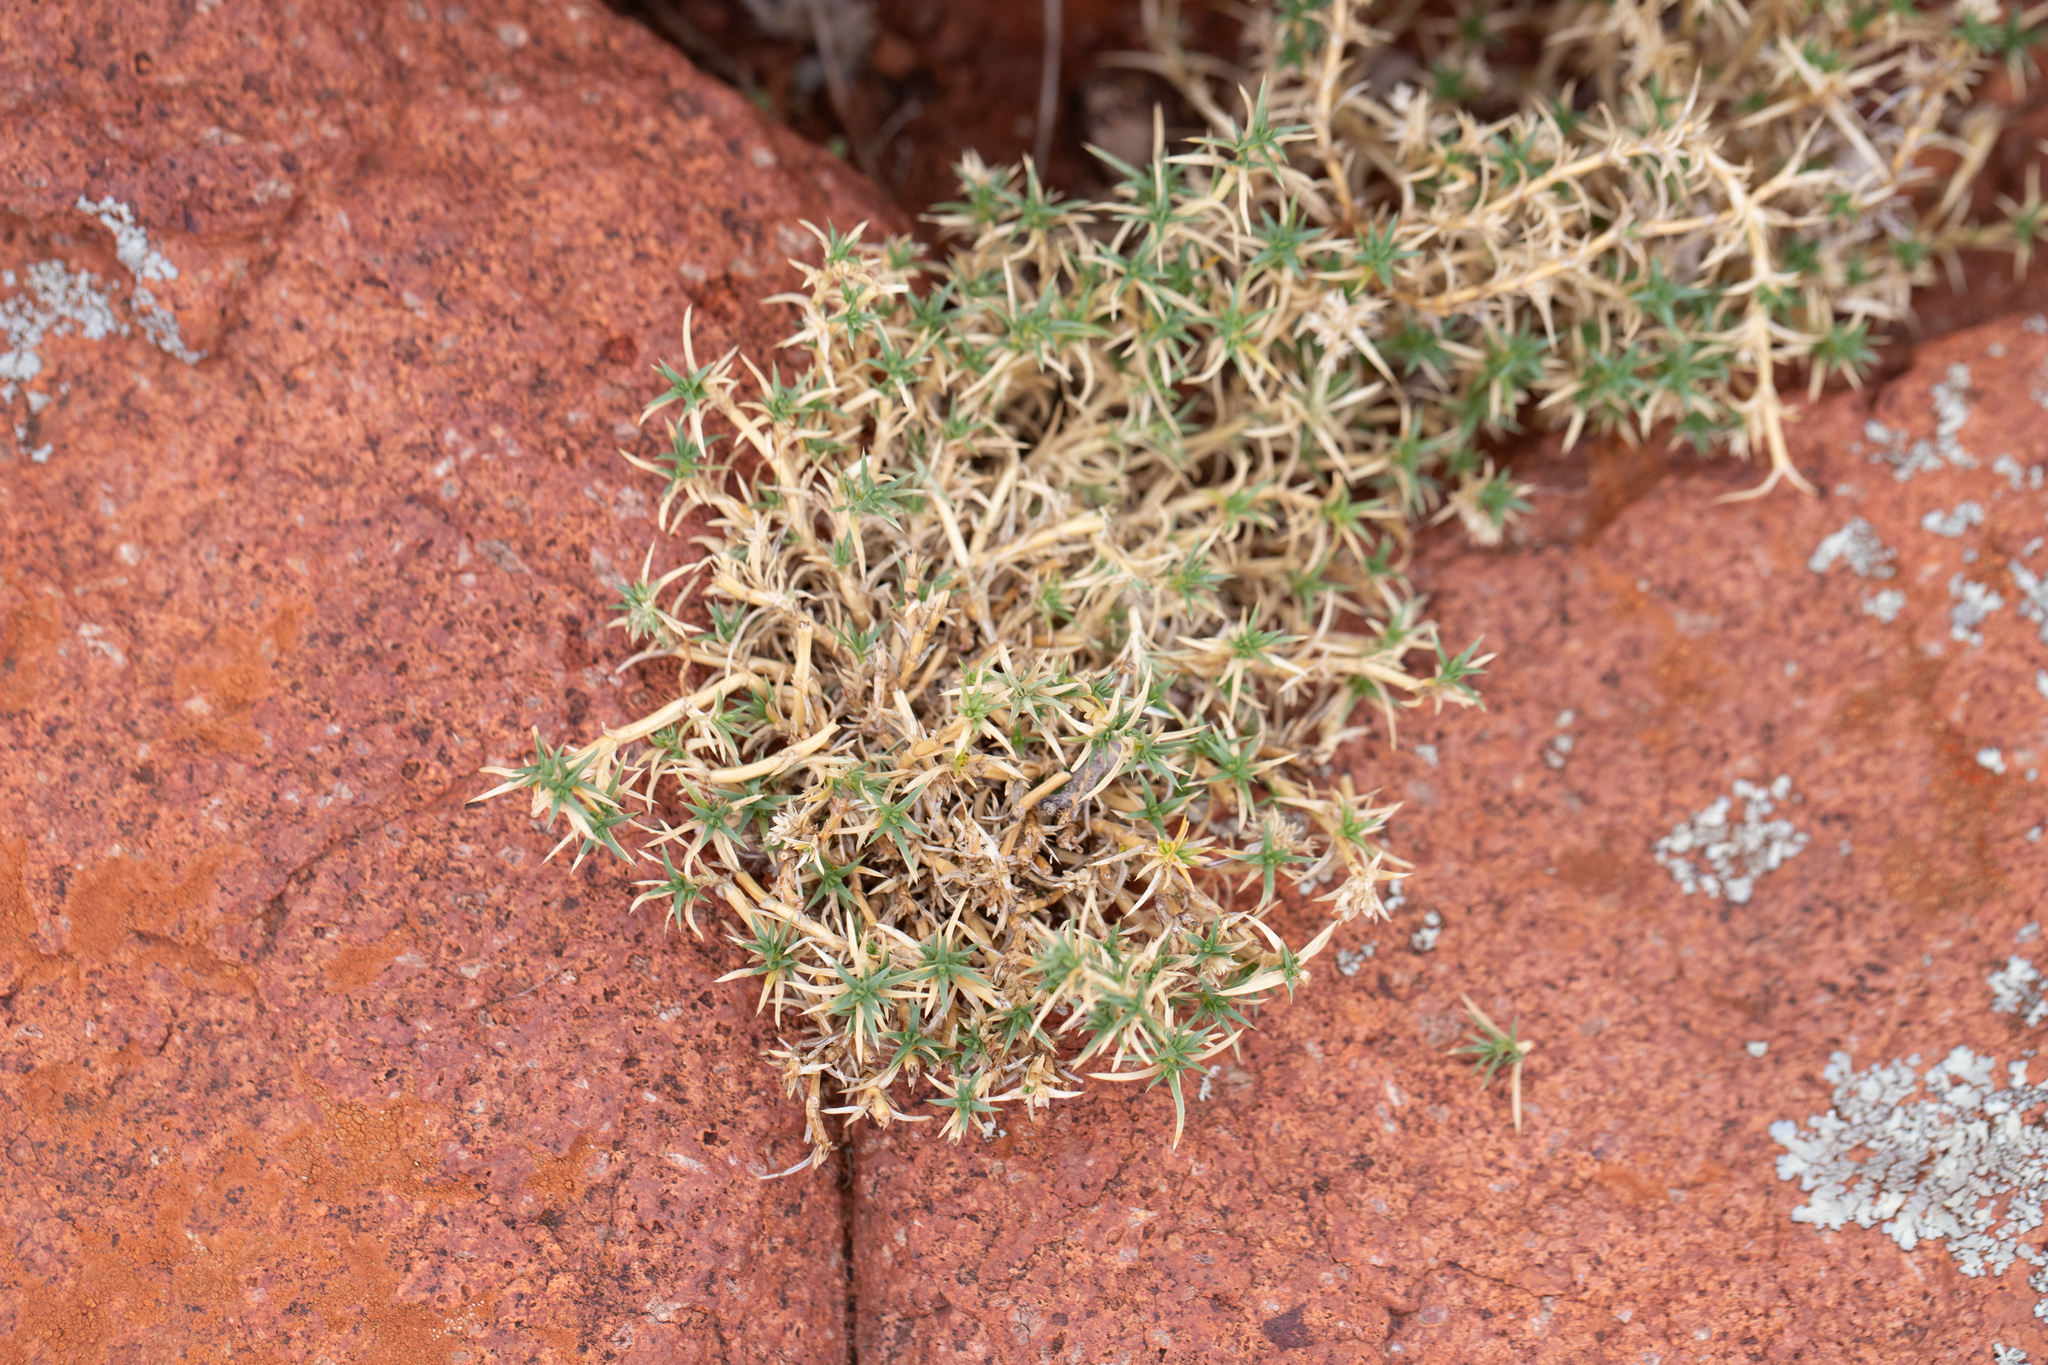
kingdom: Plantae
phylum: Tracheophyta
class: Magnoliopsida
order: Caryophyllales
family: Caryophyllaceae
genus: Scleranthus
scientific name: Scleranthus pungens
